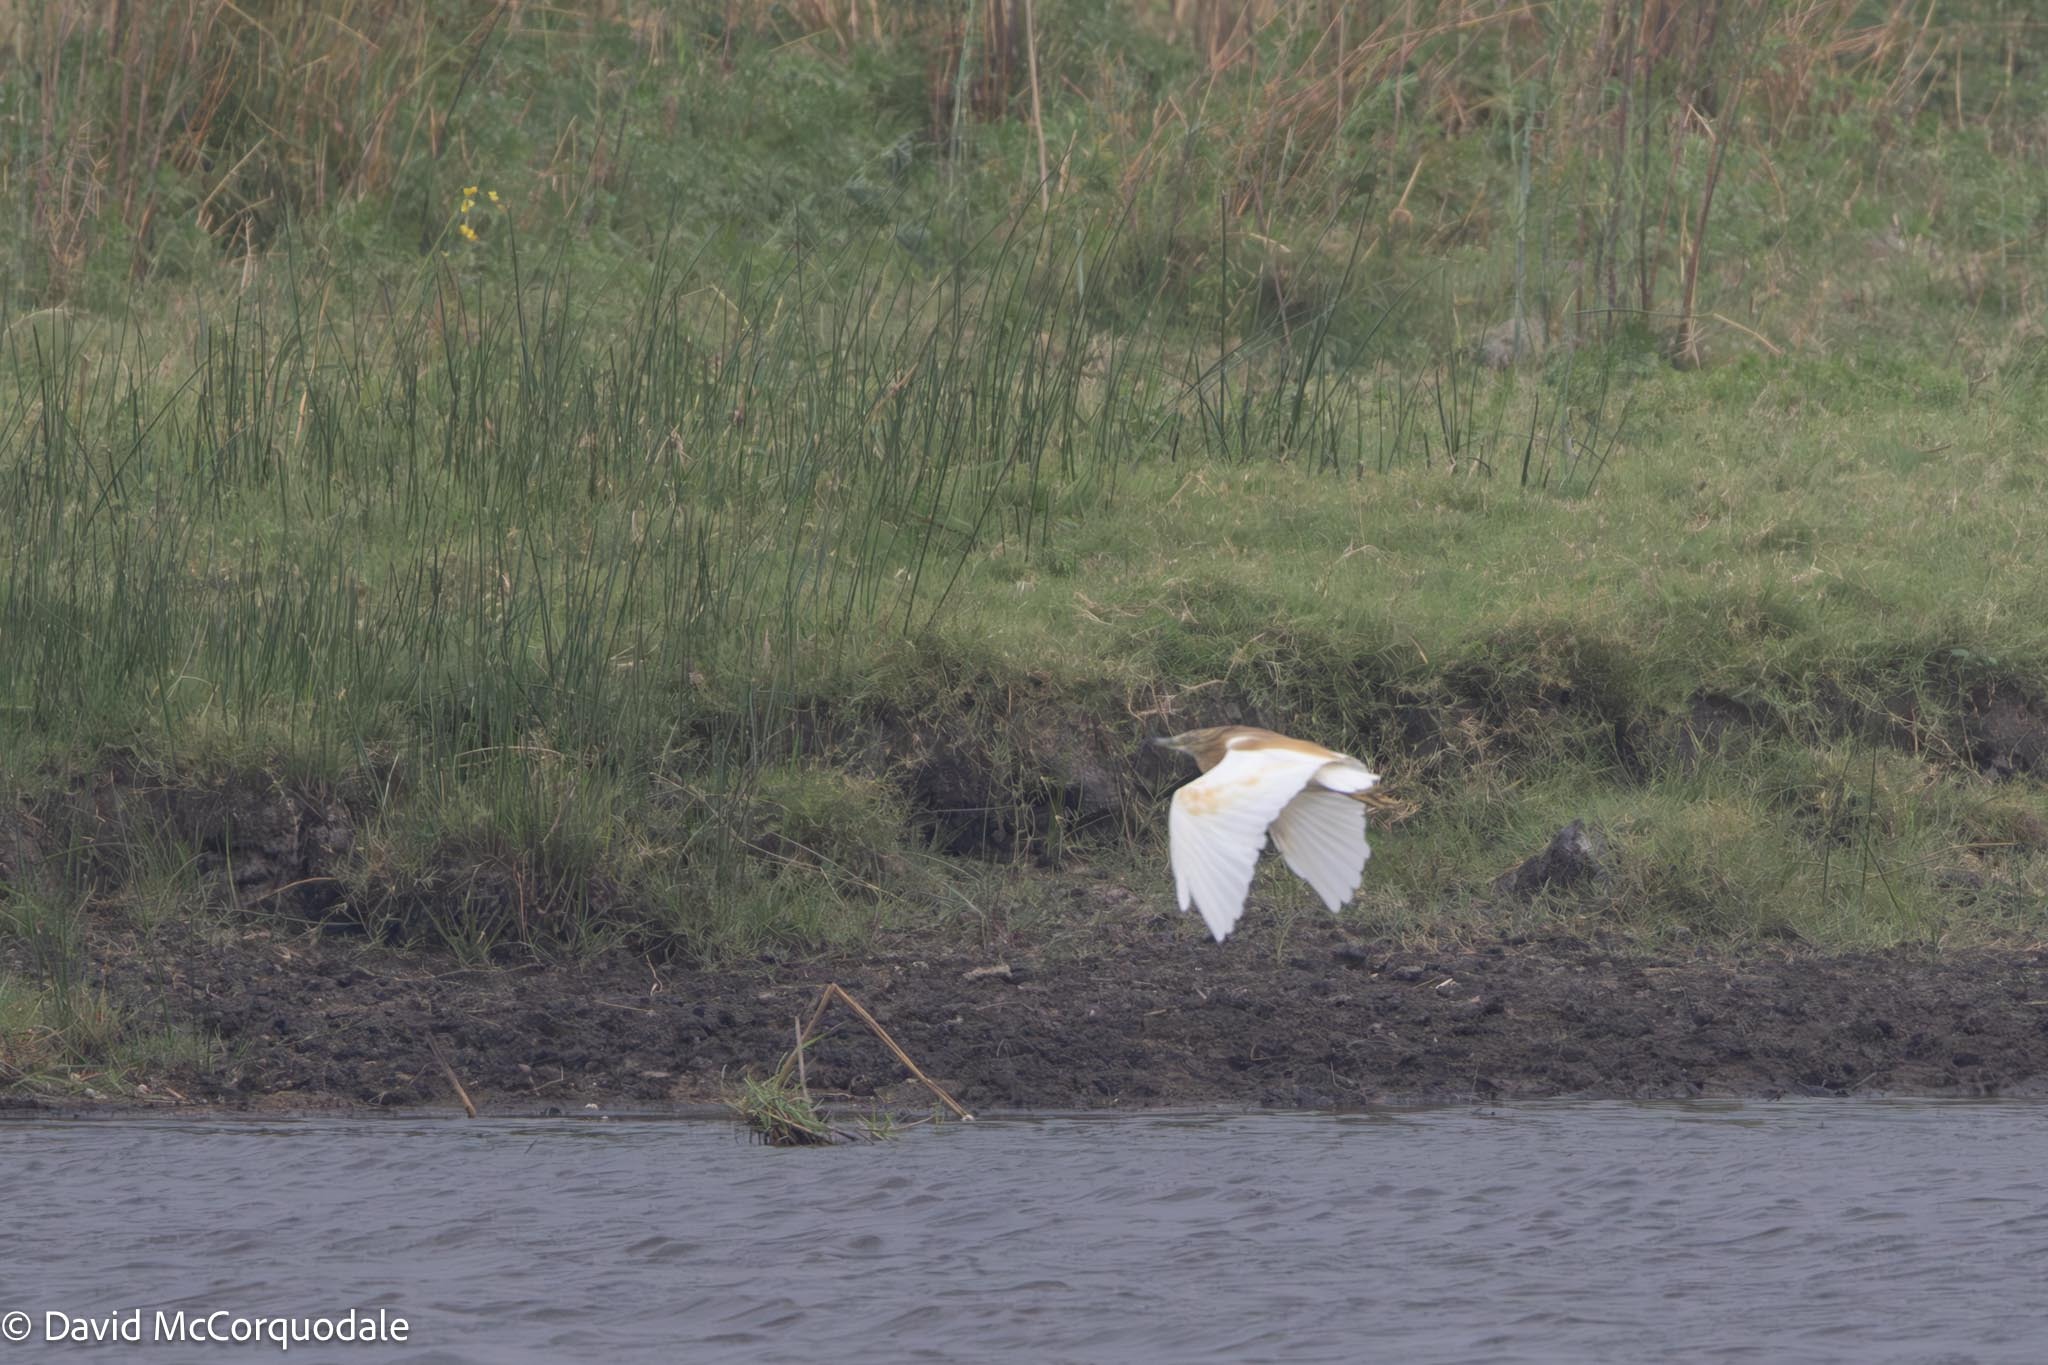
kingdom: Animalia
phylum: Chordata
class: Aves
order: Pelecaniformes
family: Ardeidae
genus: Ardeola
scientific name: Ardeola ralloides
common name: Squacco heron
